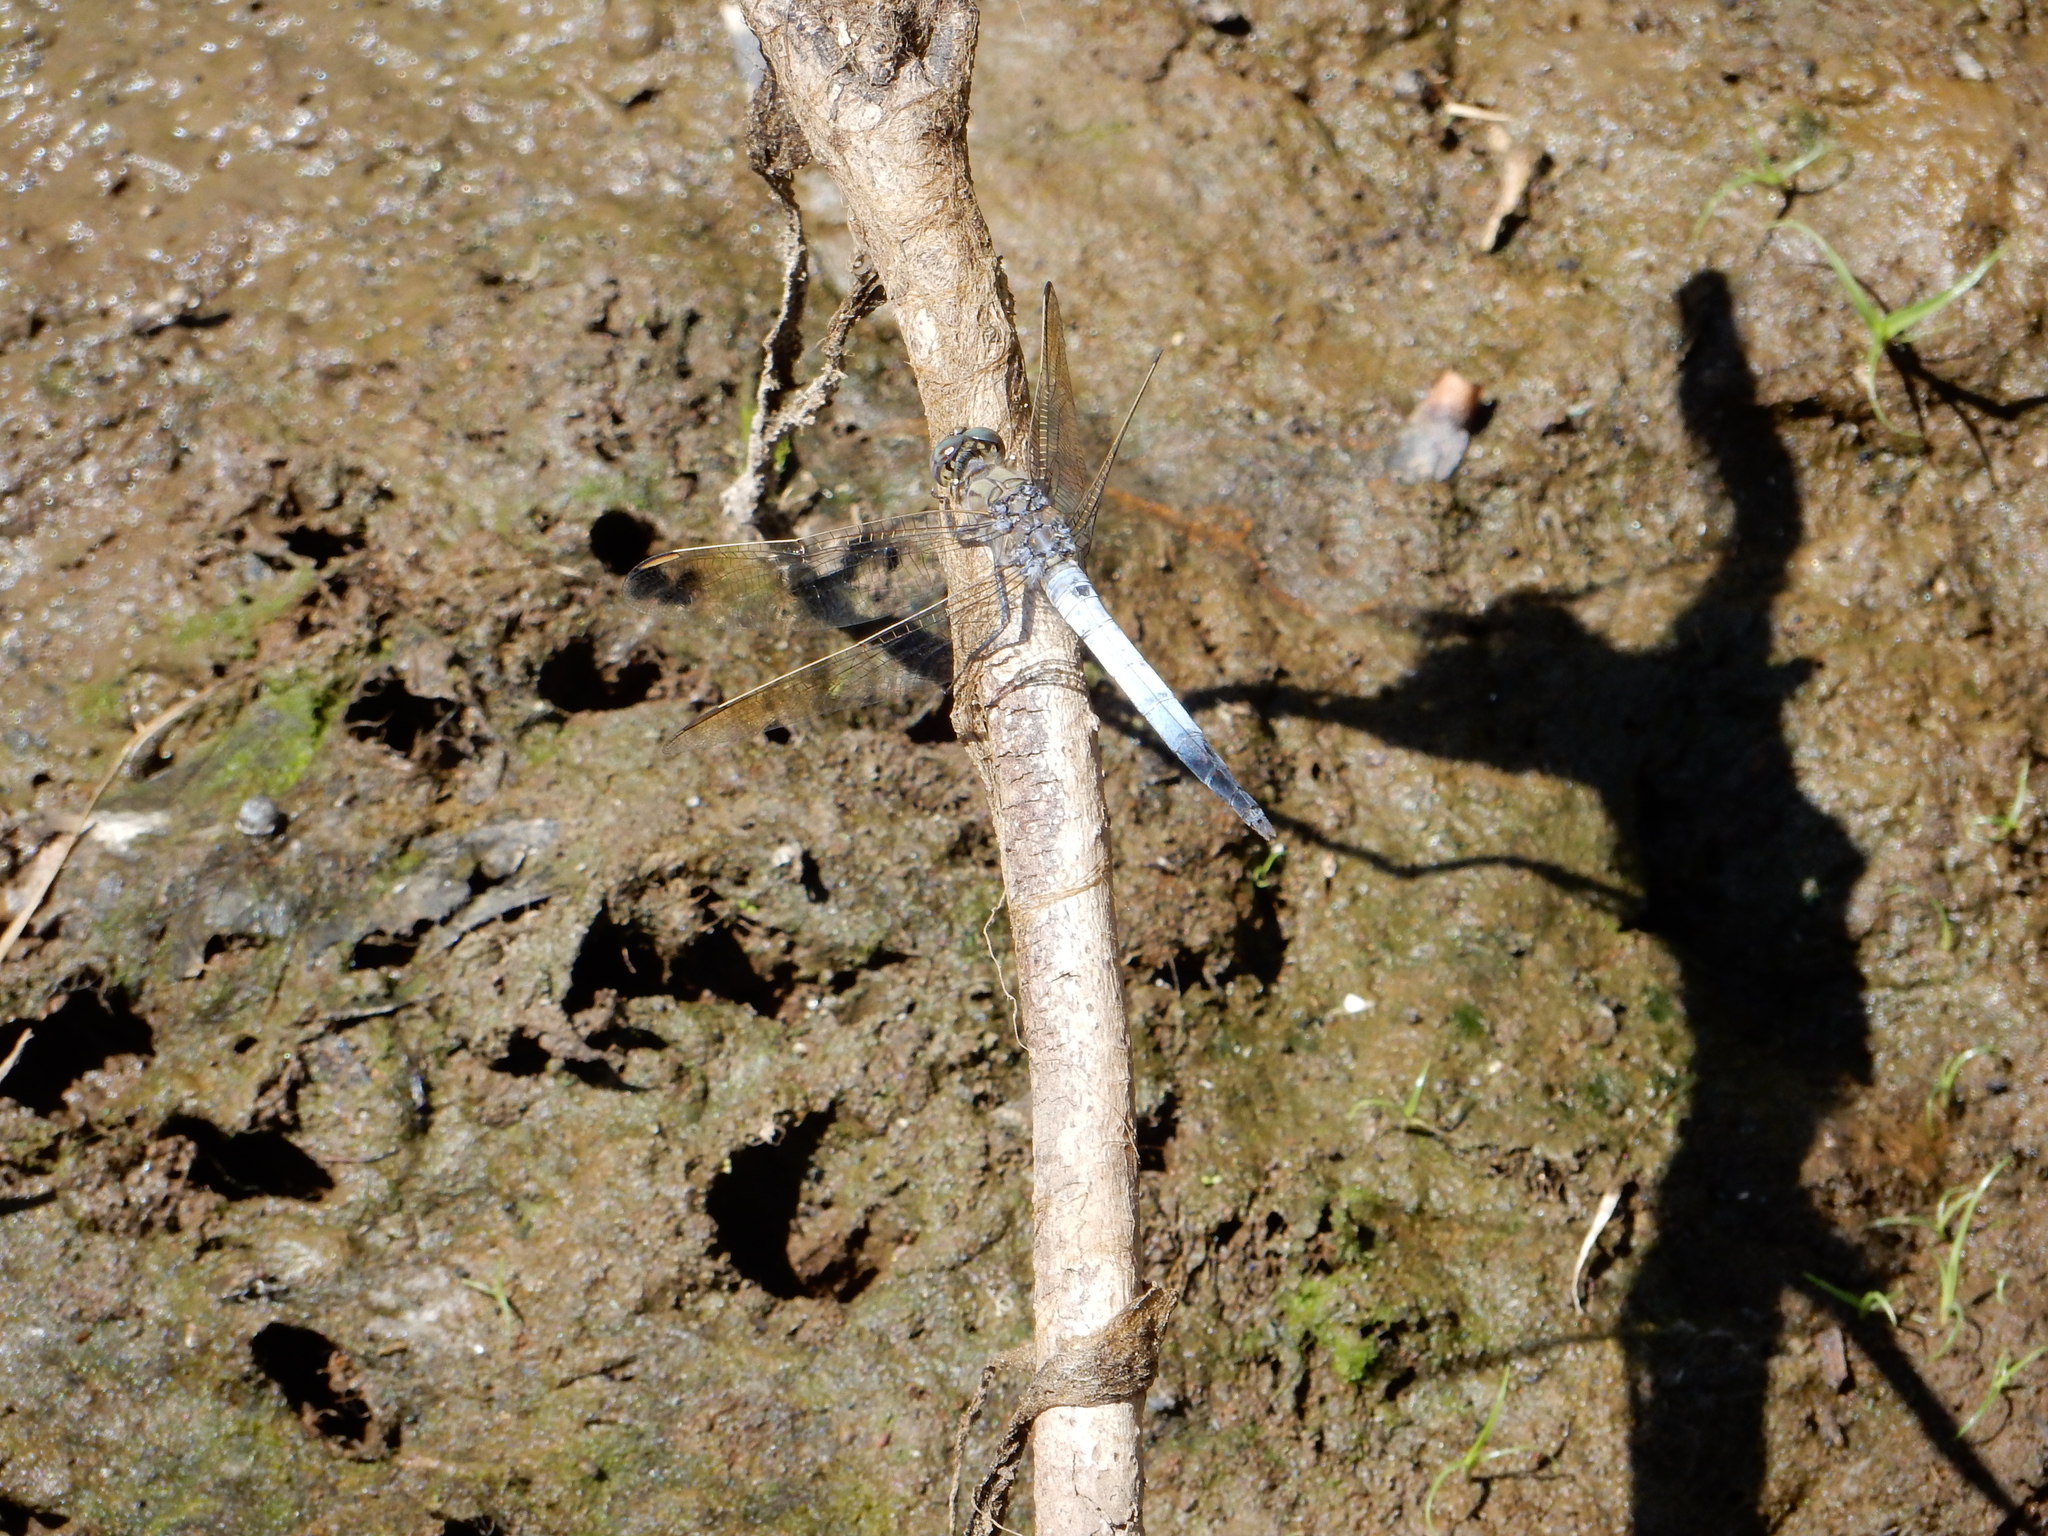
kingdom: Animalia
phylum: Arthropoda
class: Insecta
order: Odonata
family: Libellulidae
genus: Orthetrum
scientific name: Orthetrum caledonicum
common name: Blue skimmer
